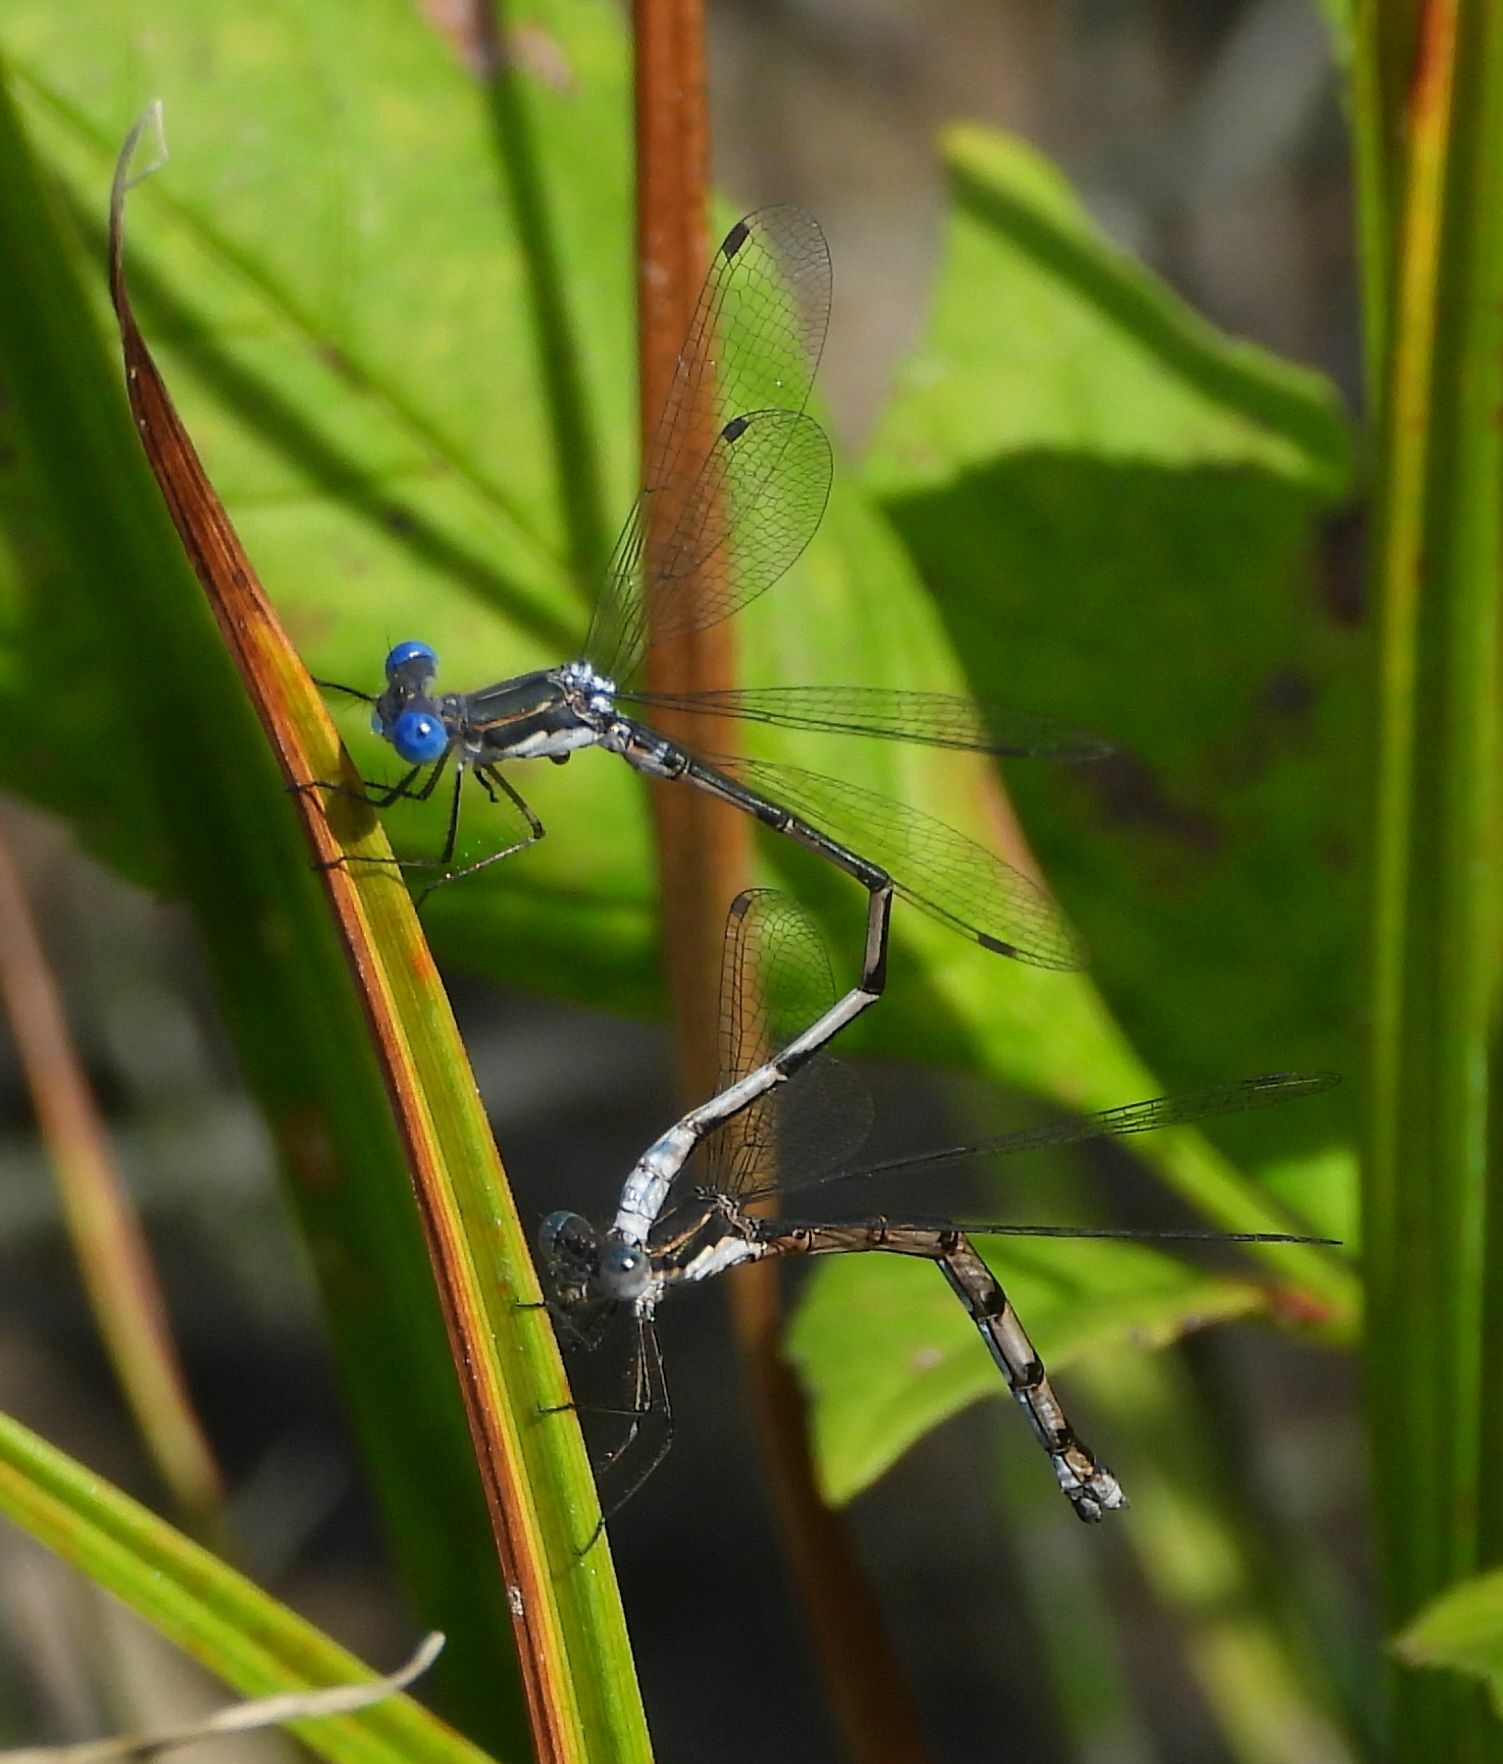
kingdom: Animalia
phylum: Arthropoda
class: Insecta
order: Odonata
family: Lestidae
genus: Lestes
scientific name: Lestes congener
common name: Spotted spreadwing
